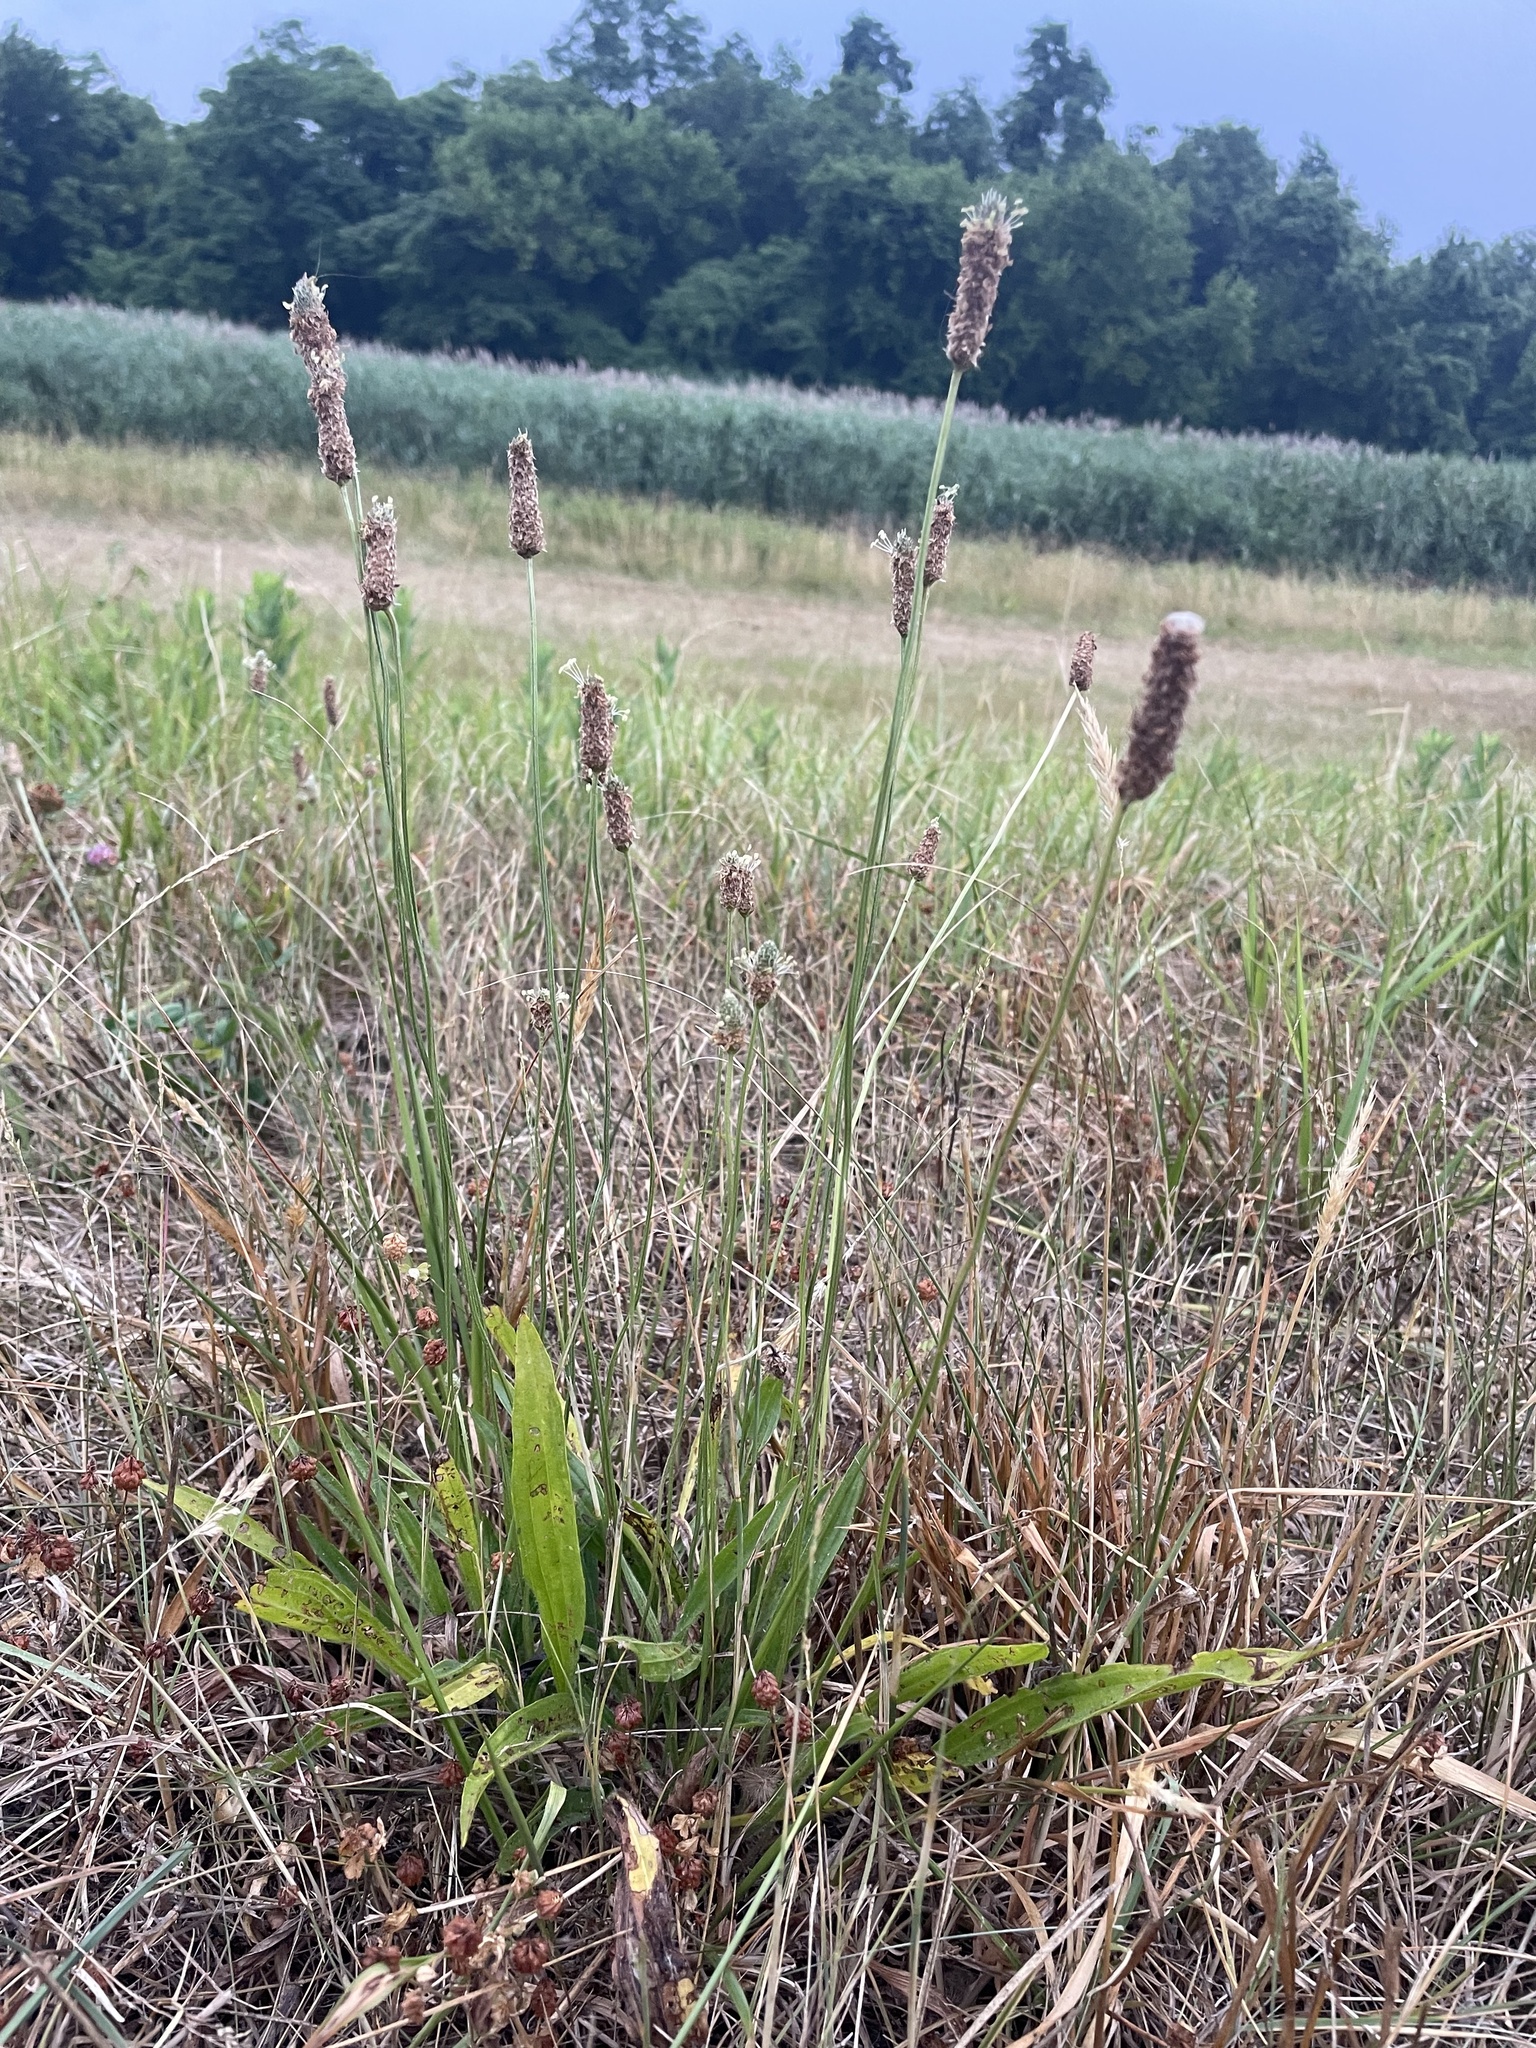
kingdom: Plantae
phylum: Tracheophyta
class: Magnoliopsida
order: Lamiales
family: Plantaginaceae
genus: Plantago
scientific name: Plantago lanceolata
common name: Ribwort plantain
